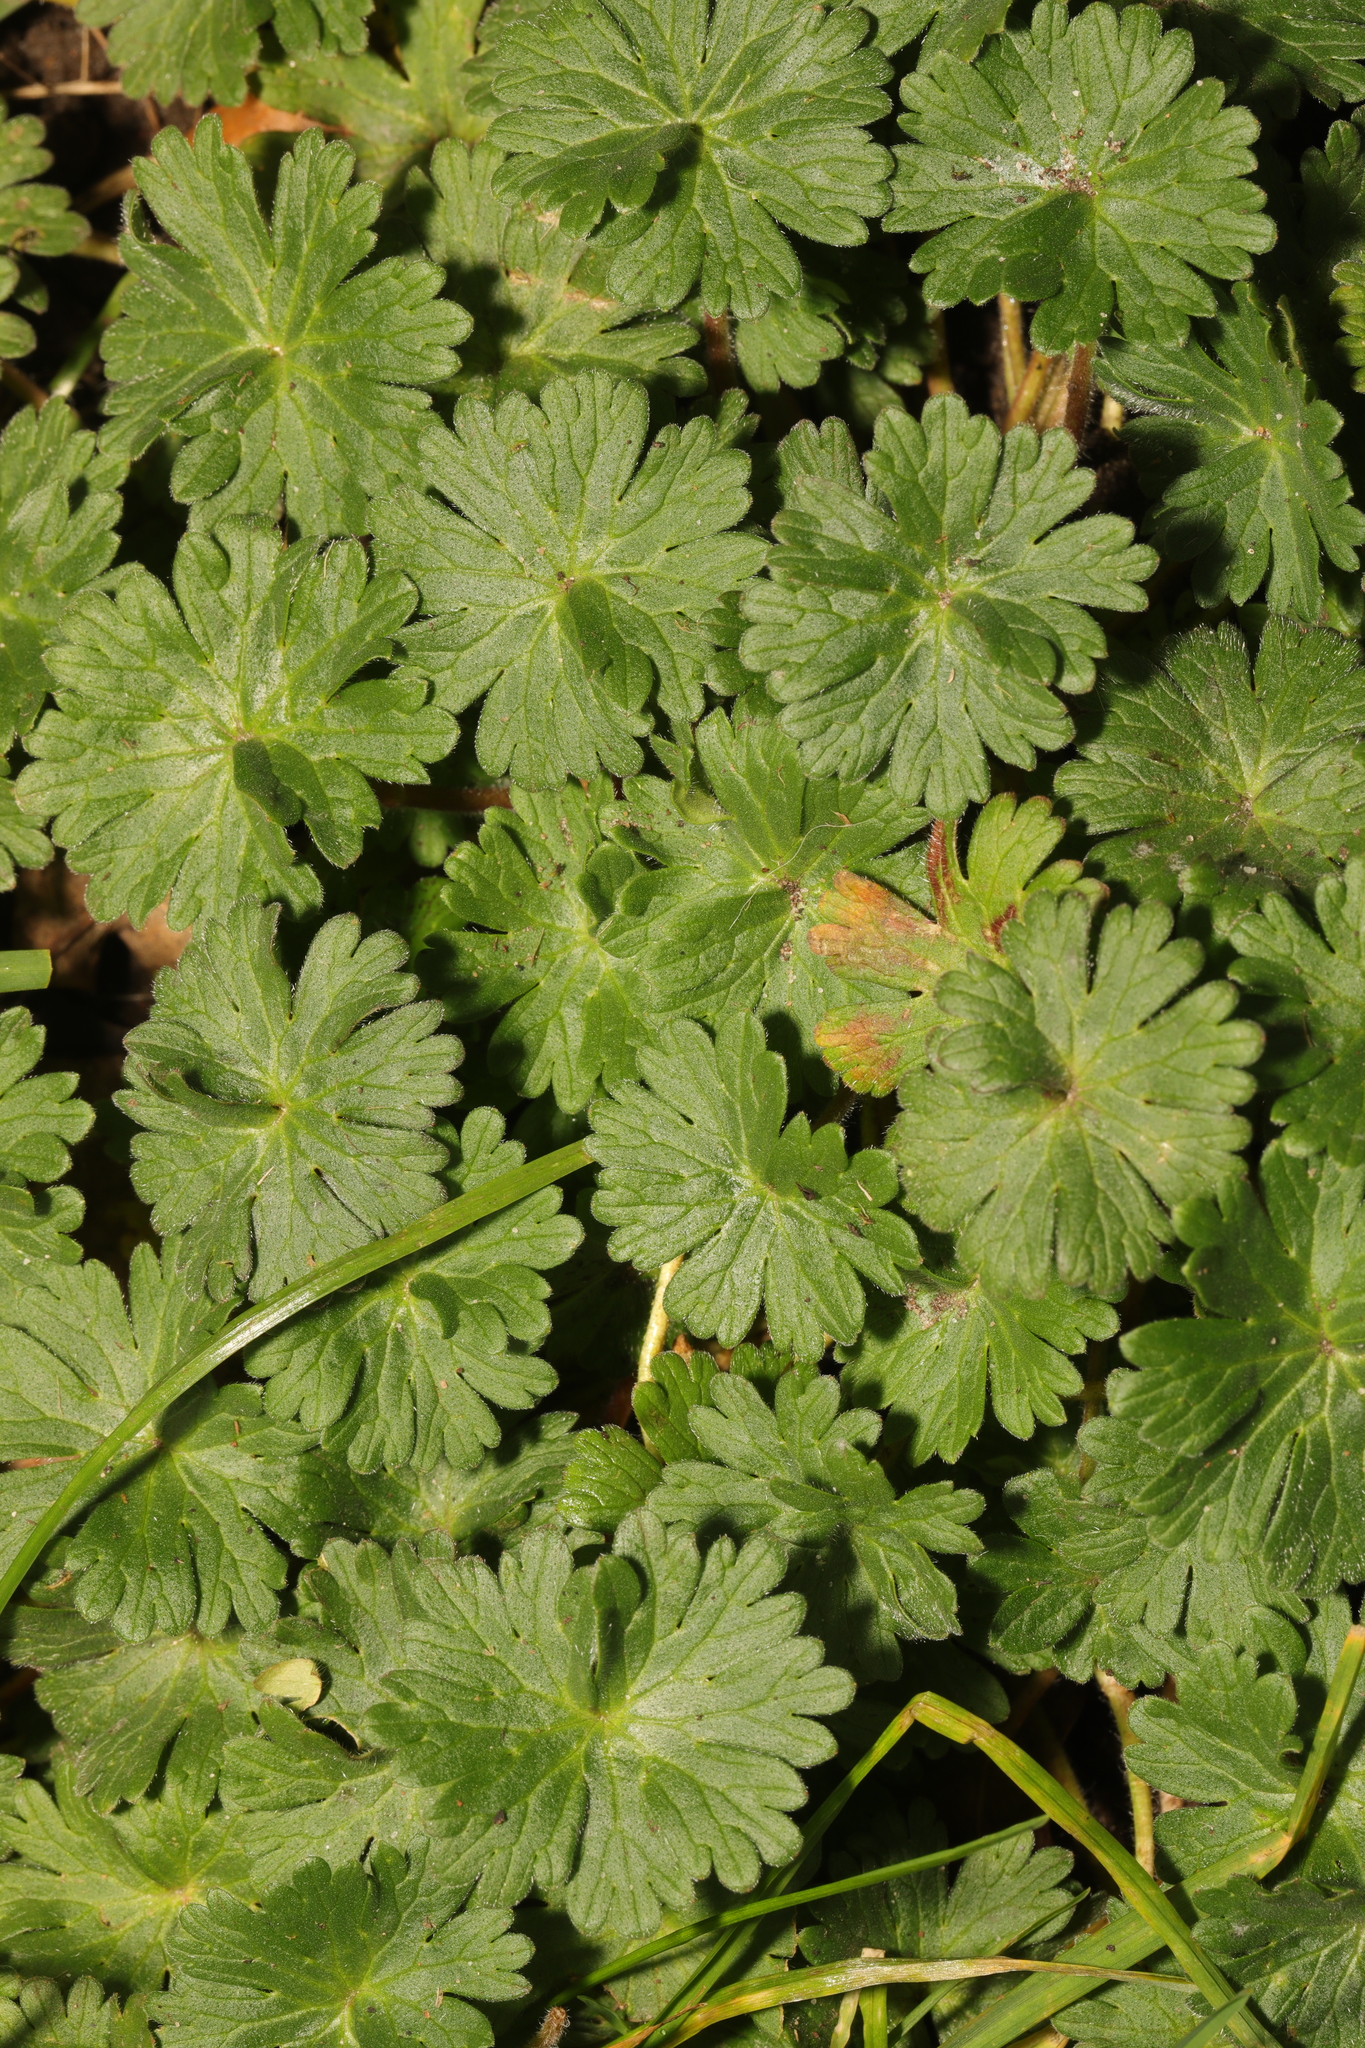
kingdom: Plantae
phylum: Tracheophyta
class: Magnoliopsida
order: Geraniales
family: Geraniaceae
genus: Geranium
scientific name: Geranium molle
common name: Dove's-foot crane's-bill
